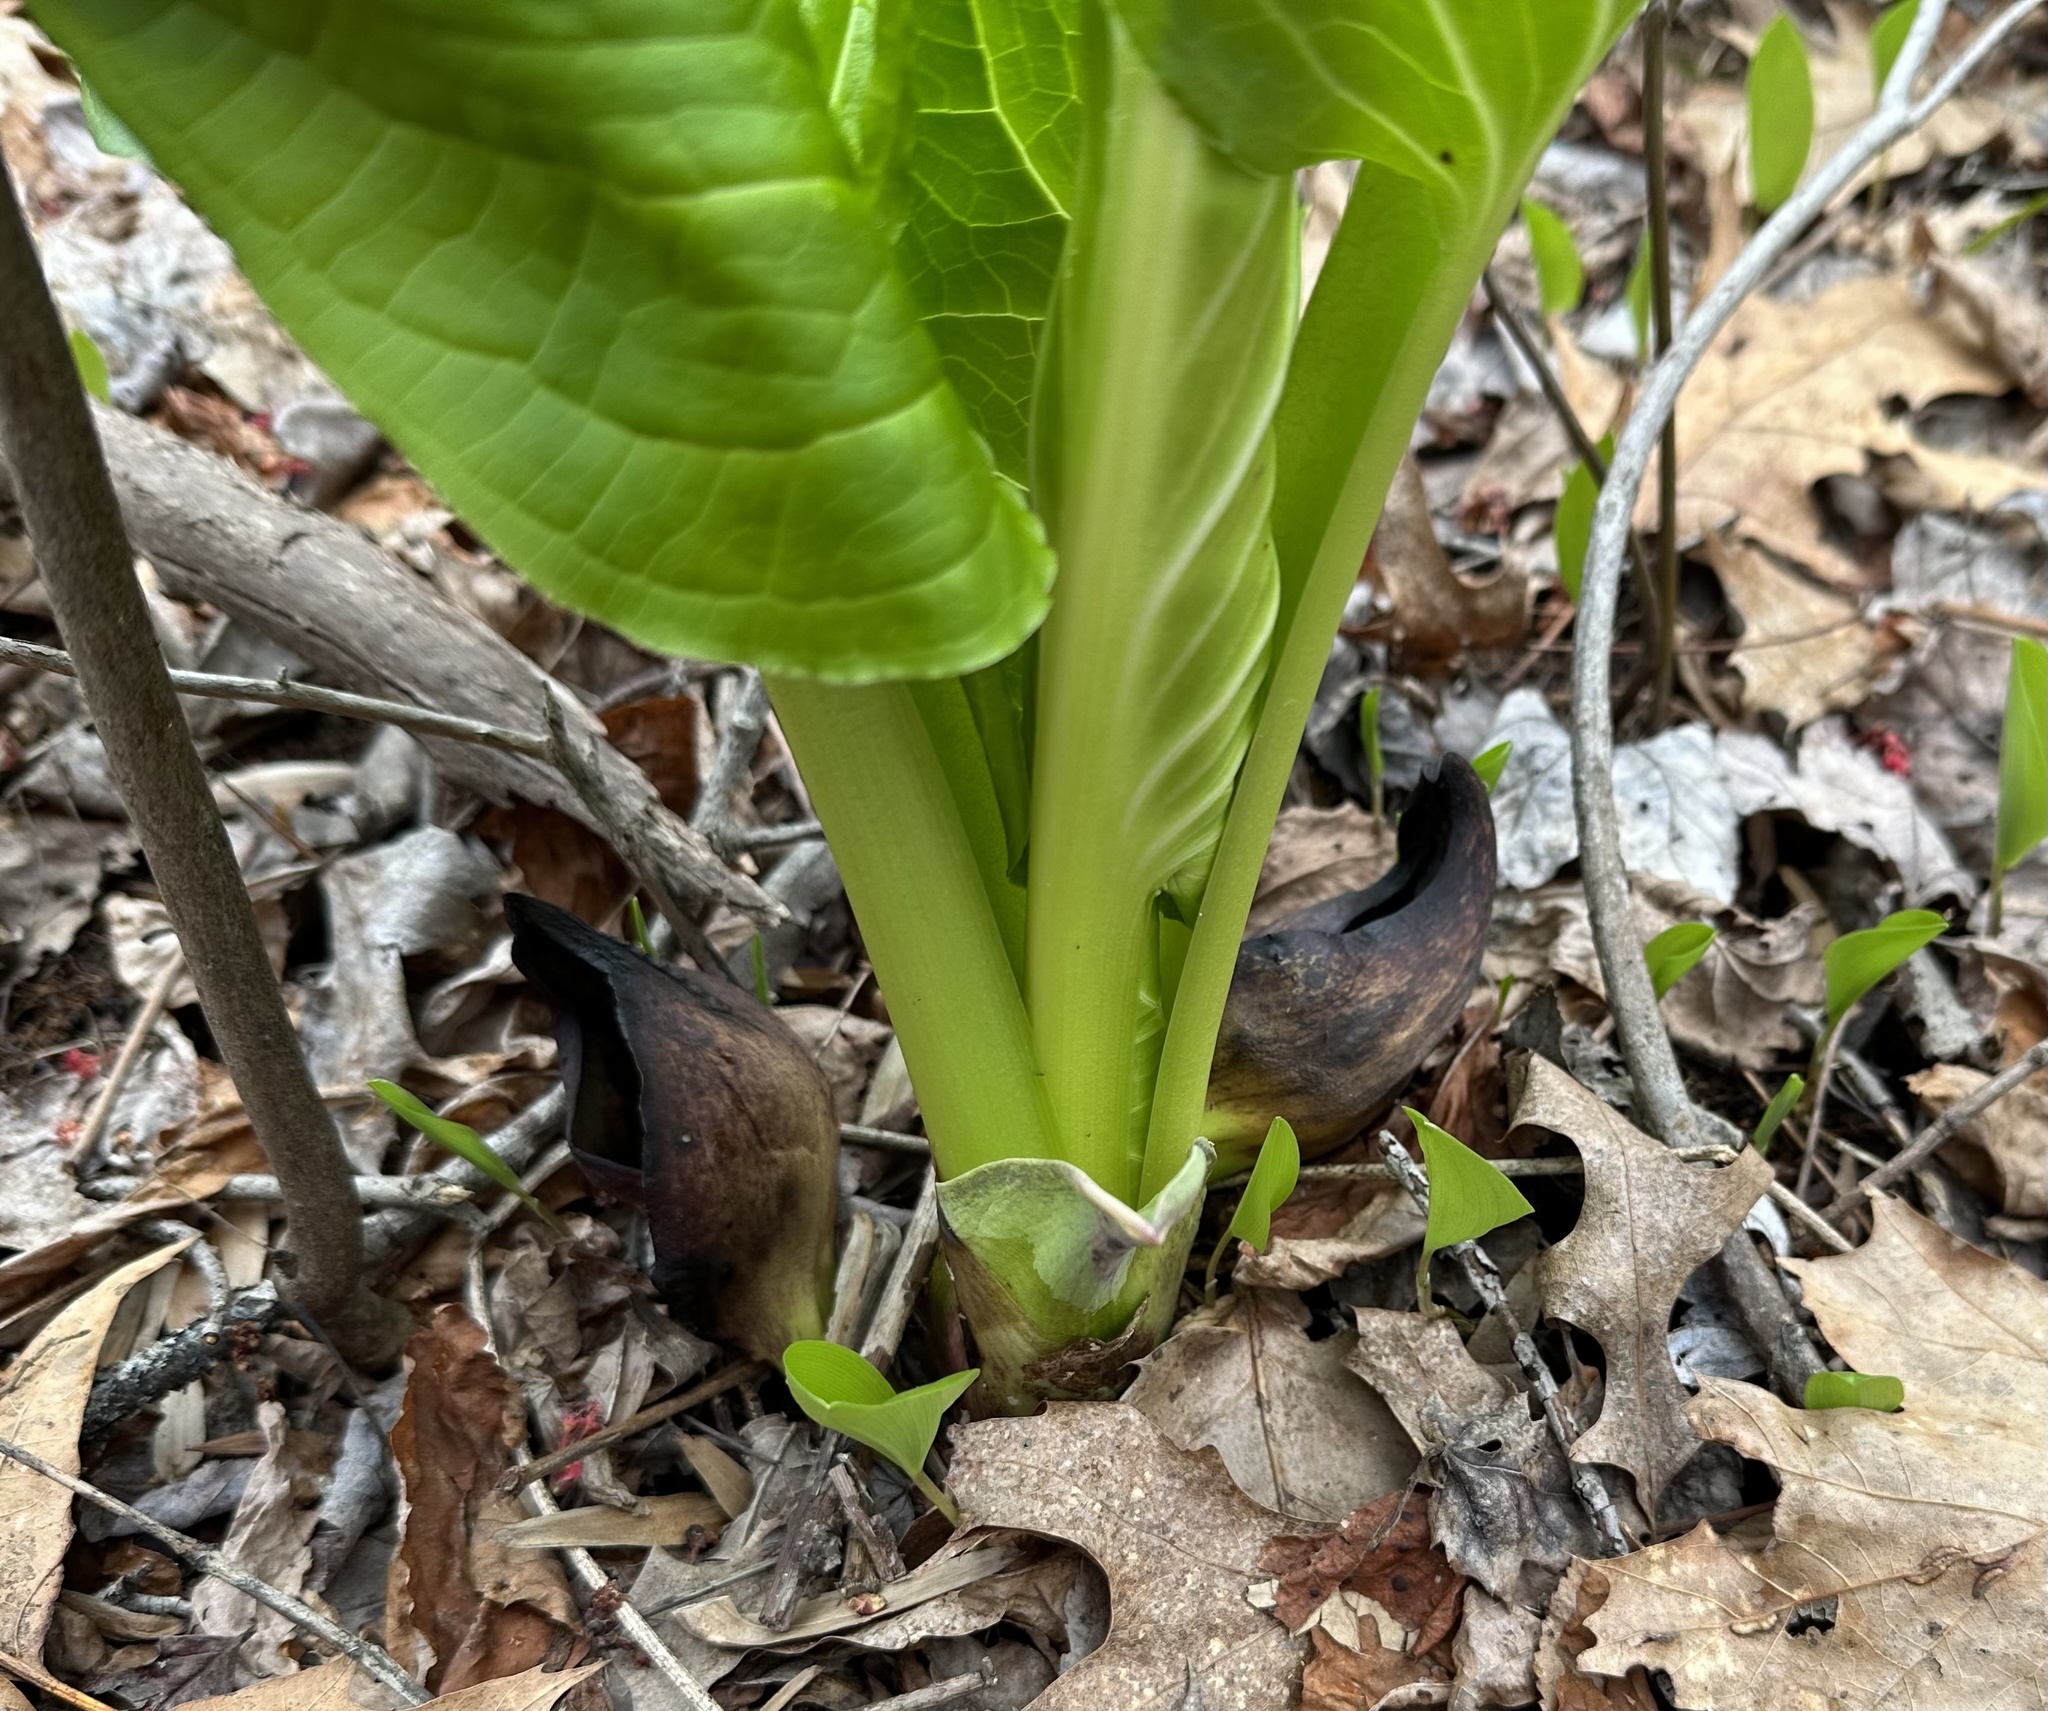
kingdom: Plantae
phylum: Tracheophyta
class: Liliopsida
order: Alismatales
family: Araceae
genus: Symplocarpus
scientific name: Symplocarpus foetidus
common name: Eastern skunk cabbage
